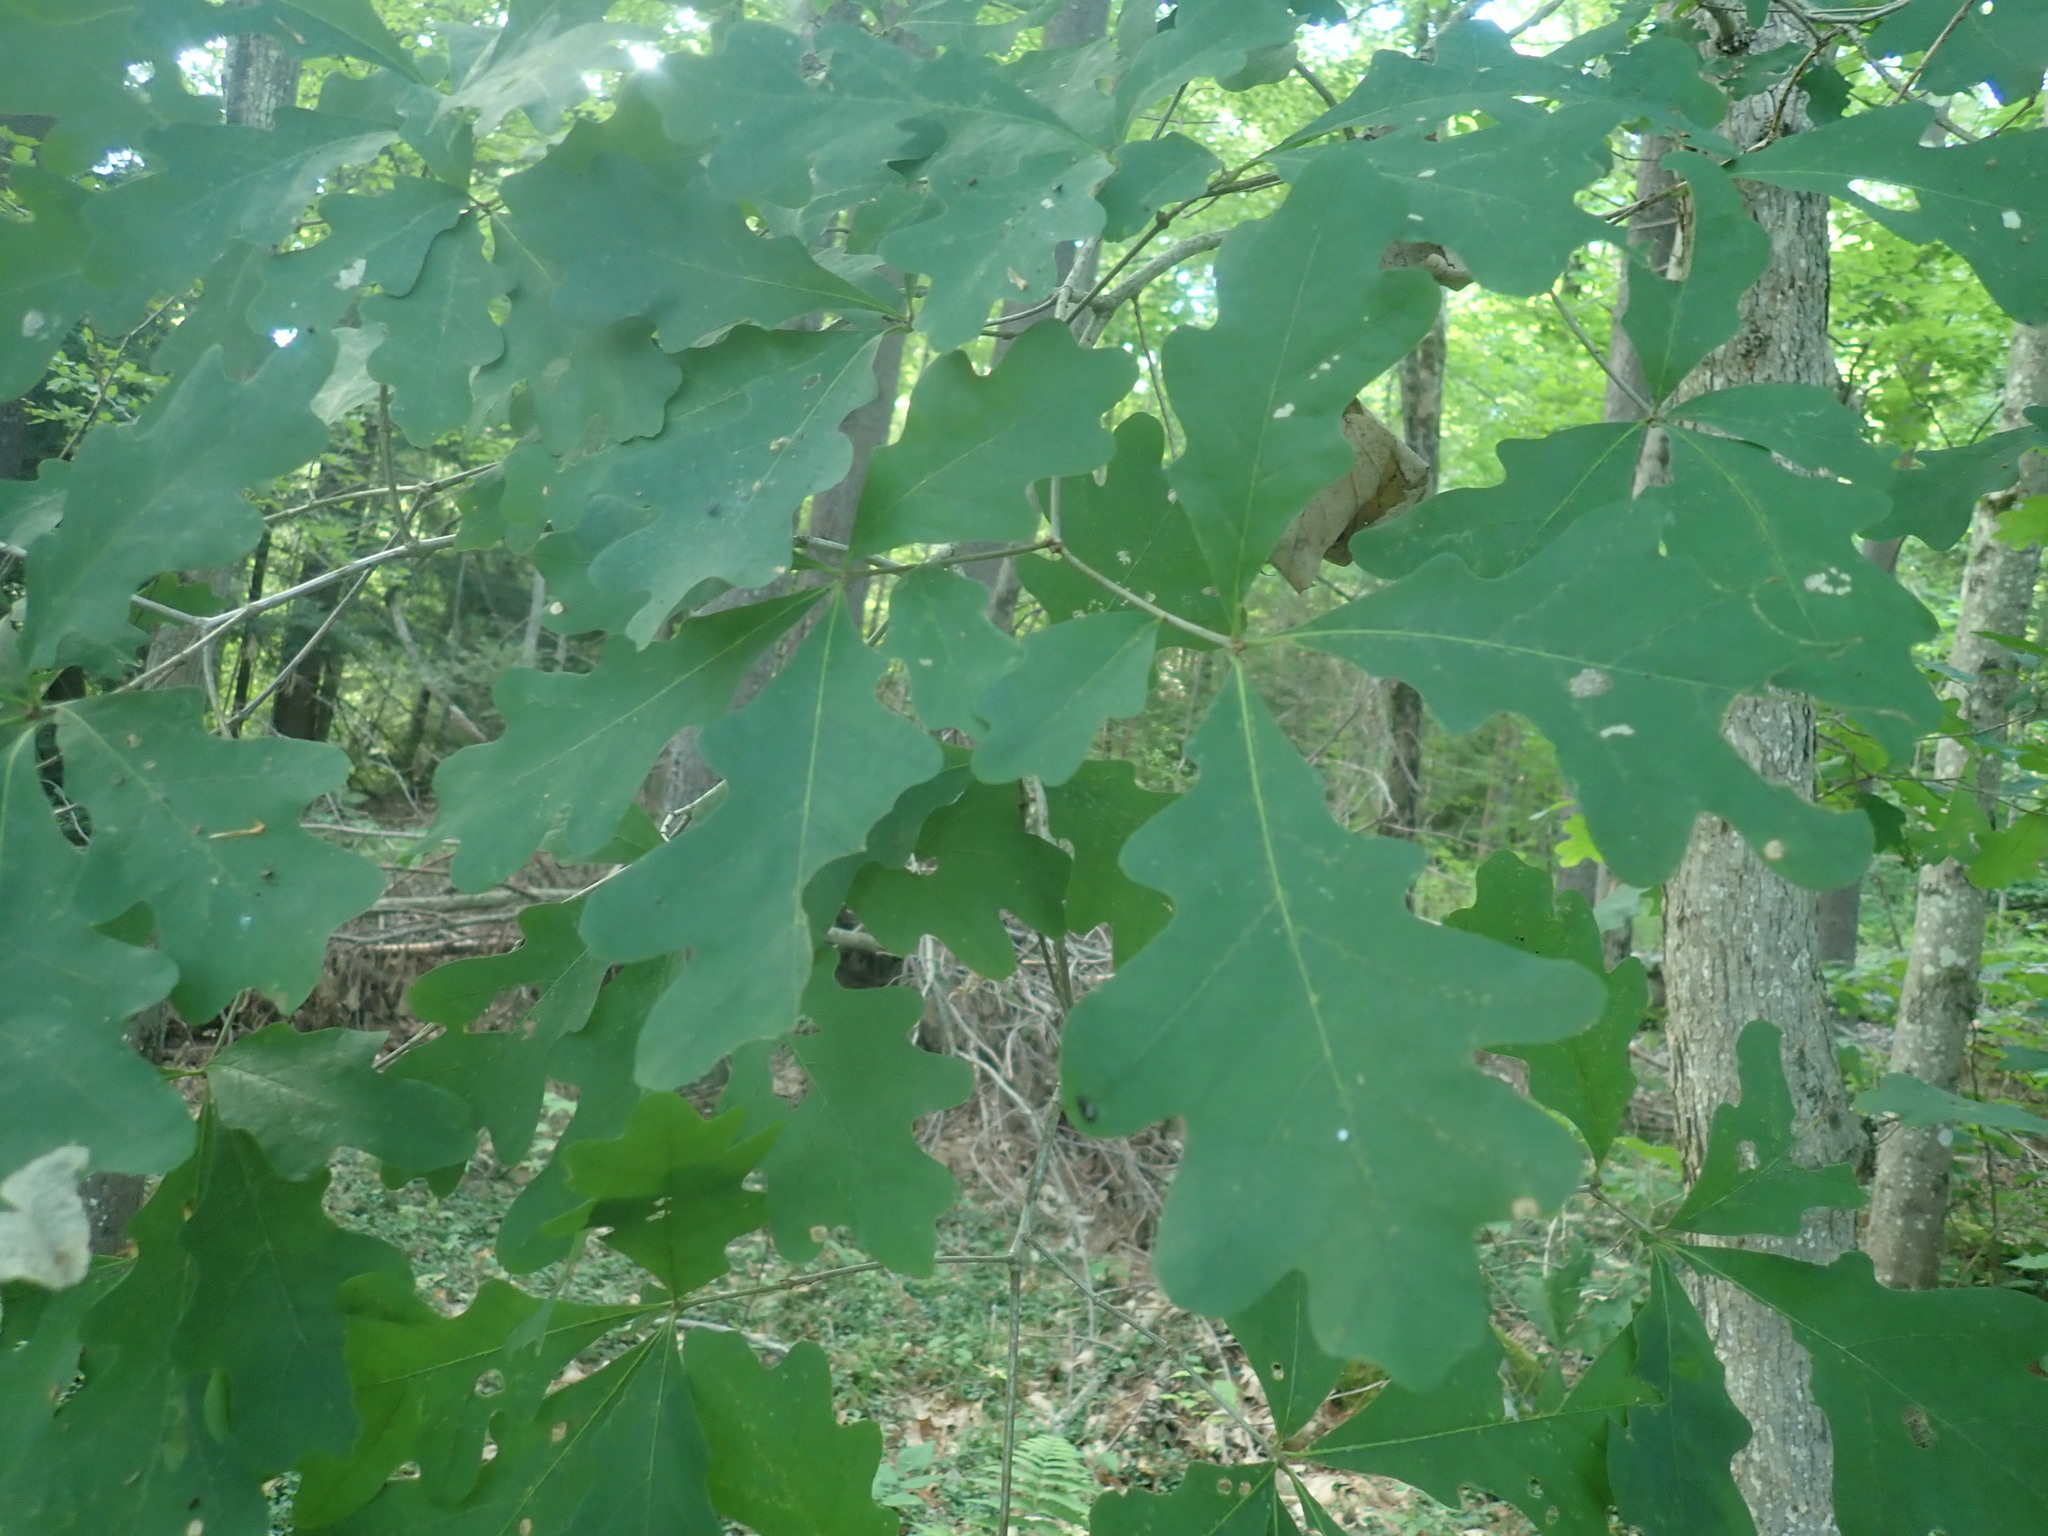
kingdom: Plantae
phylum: Tracheophyta
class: Magnoliopsida
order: Fagales
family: Fagaceae
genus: Quercus
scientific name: Quercus alba
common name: White oak
